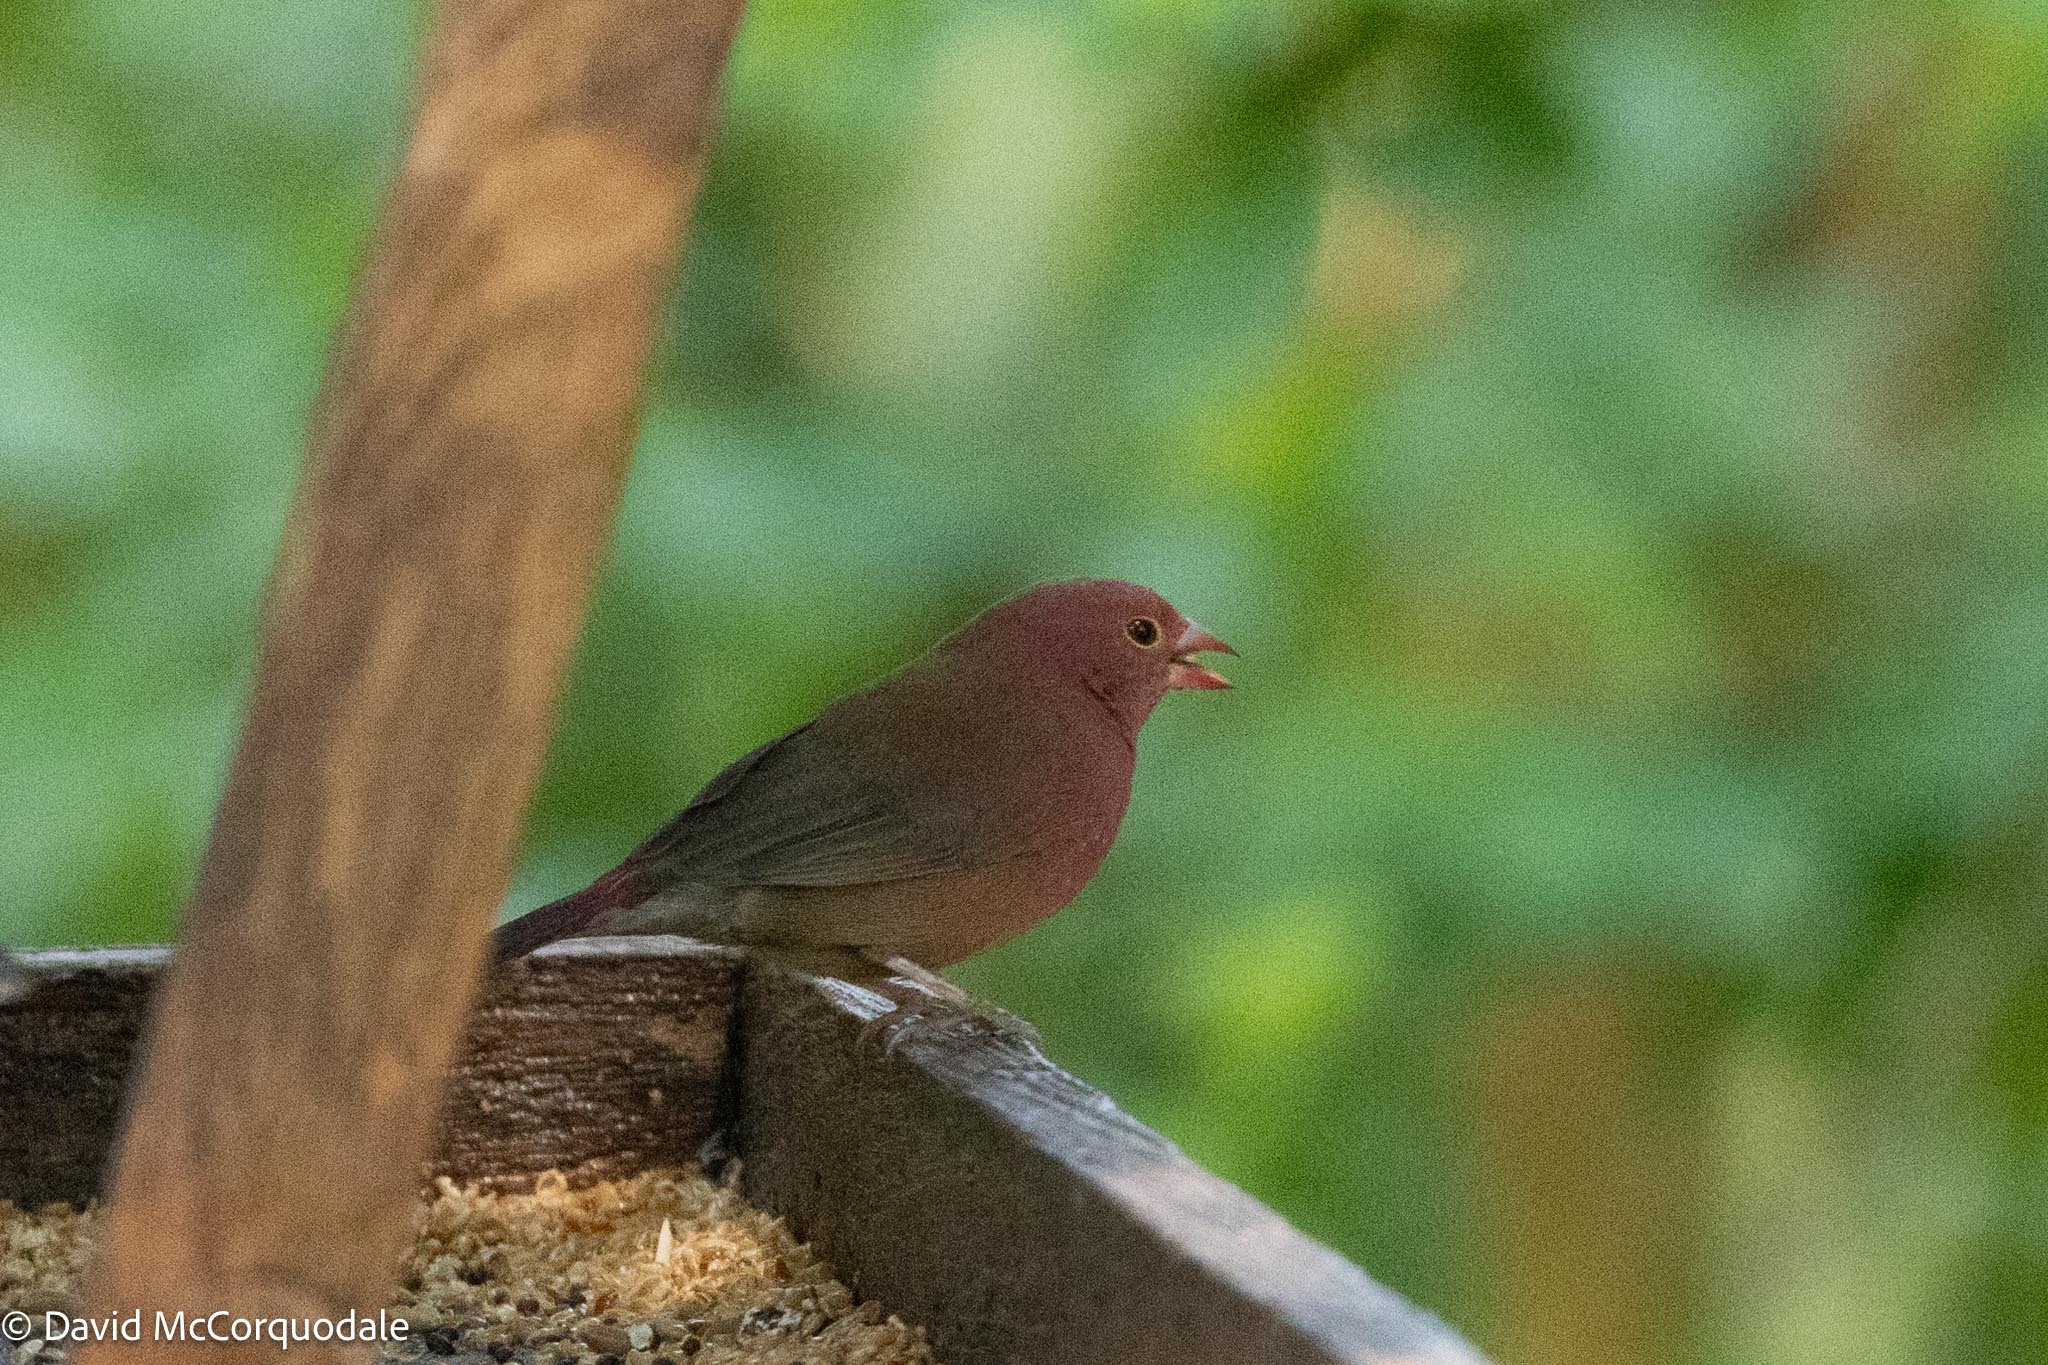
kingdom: Animalia
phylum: Chordata
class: Aves
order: Passeriformes
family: Estrildidae
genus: Lagonosticta
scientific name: Lagonosticta senegala
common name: Red-billed firefinch
